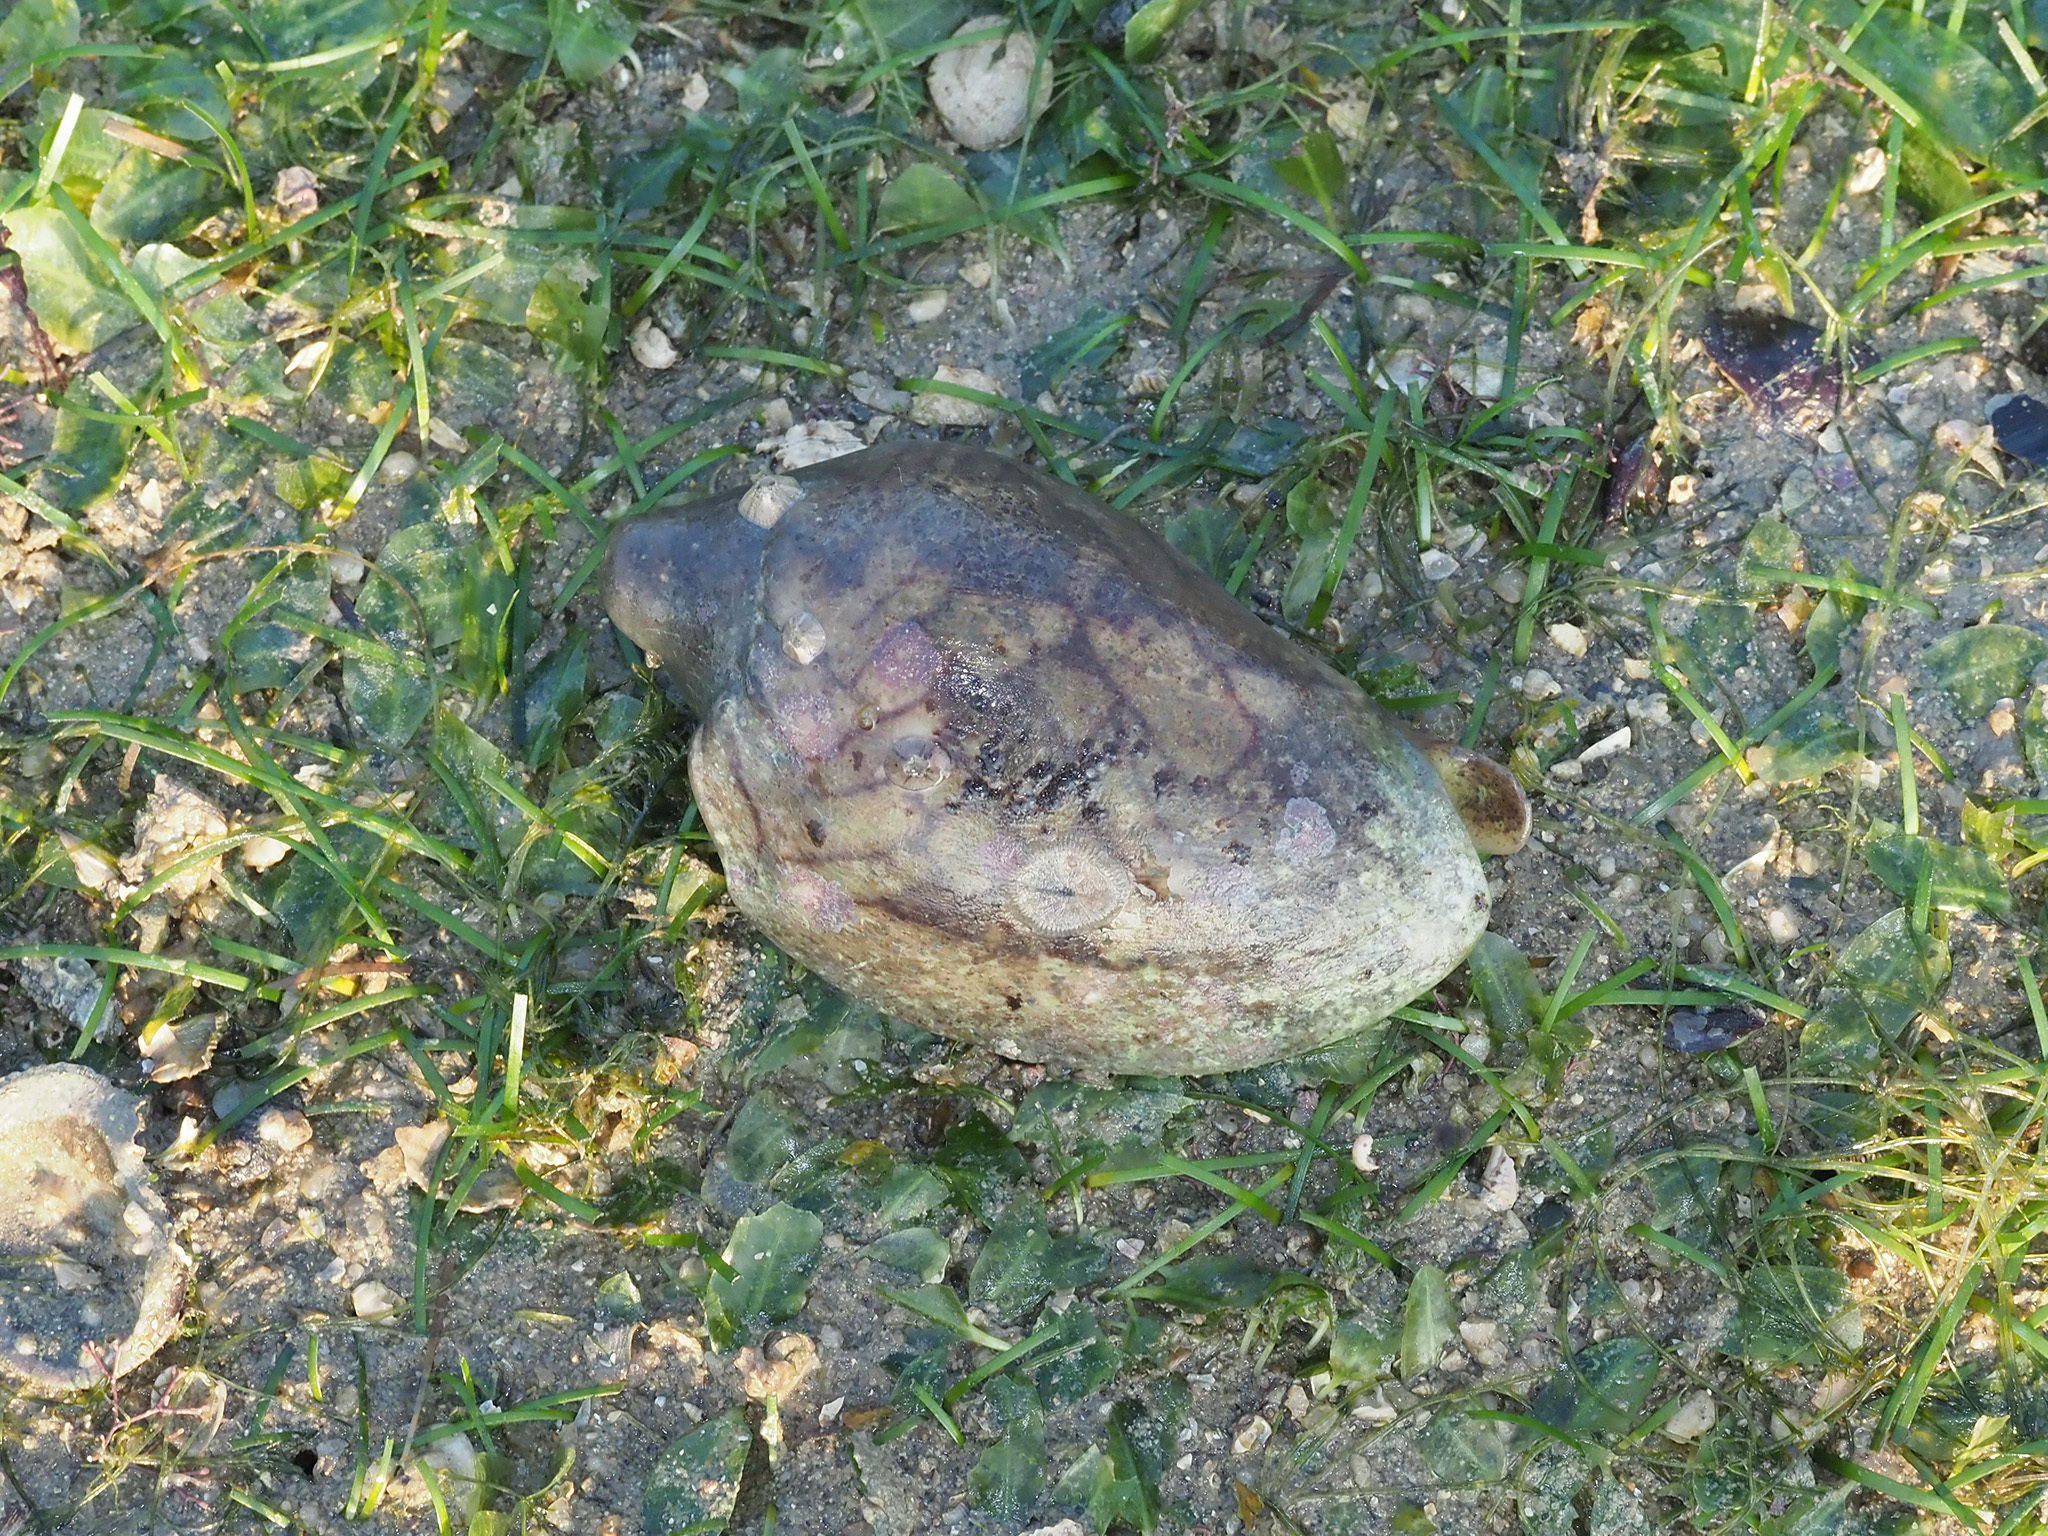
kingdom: Animalia
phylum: Mollusca
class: Gastropoda
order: Neogastropoda
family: Volutidae
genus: Cymbiola
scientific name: Cymbiola nobilis
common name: Noble volute
